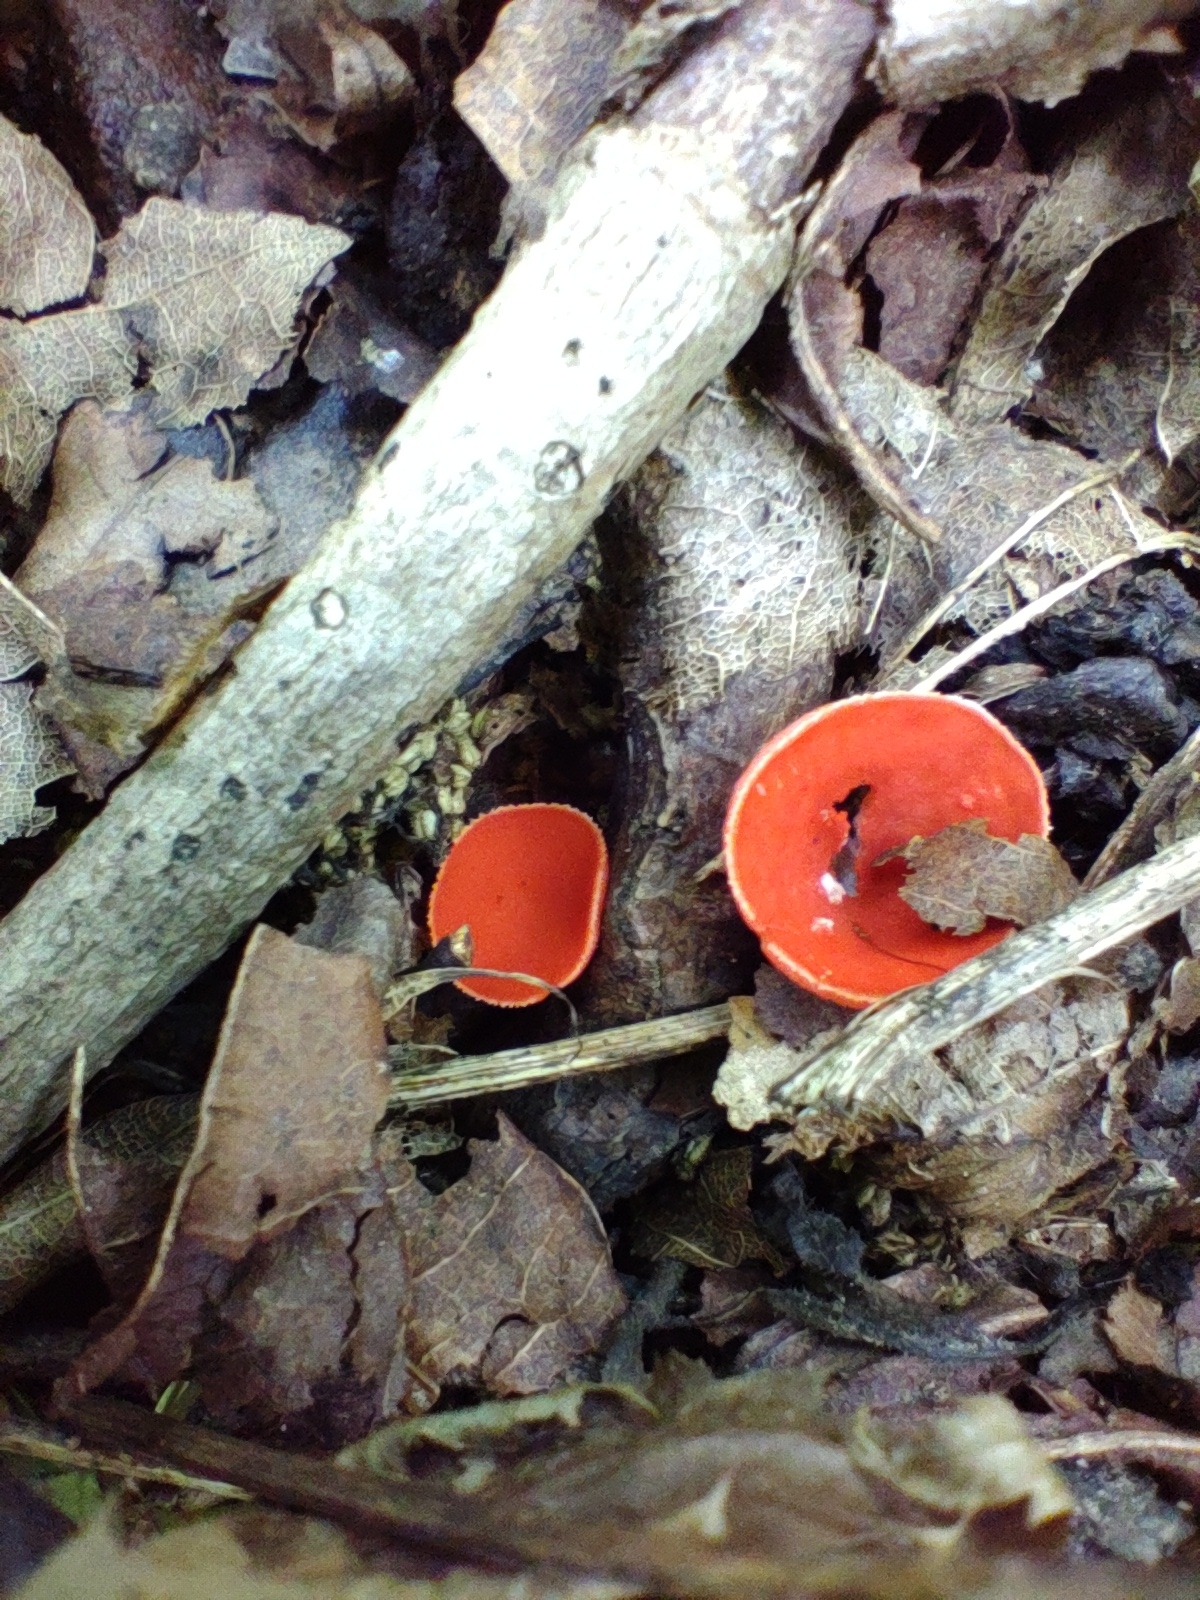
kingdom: Fungi
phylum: Ascomycota
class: Pezizomycetes
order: Pezizales
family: Sarcoscyphaceae
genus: Sarcoscypha
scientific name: Sarcoscypha occidentalis
